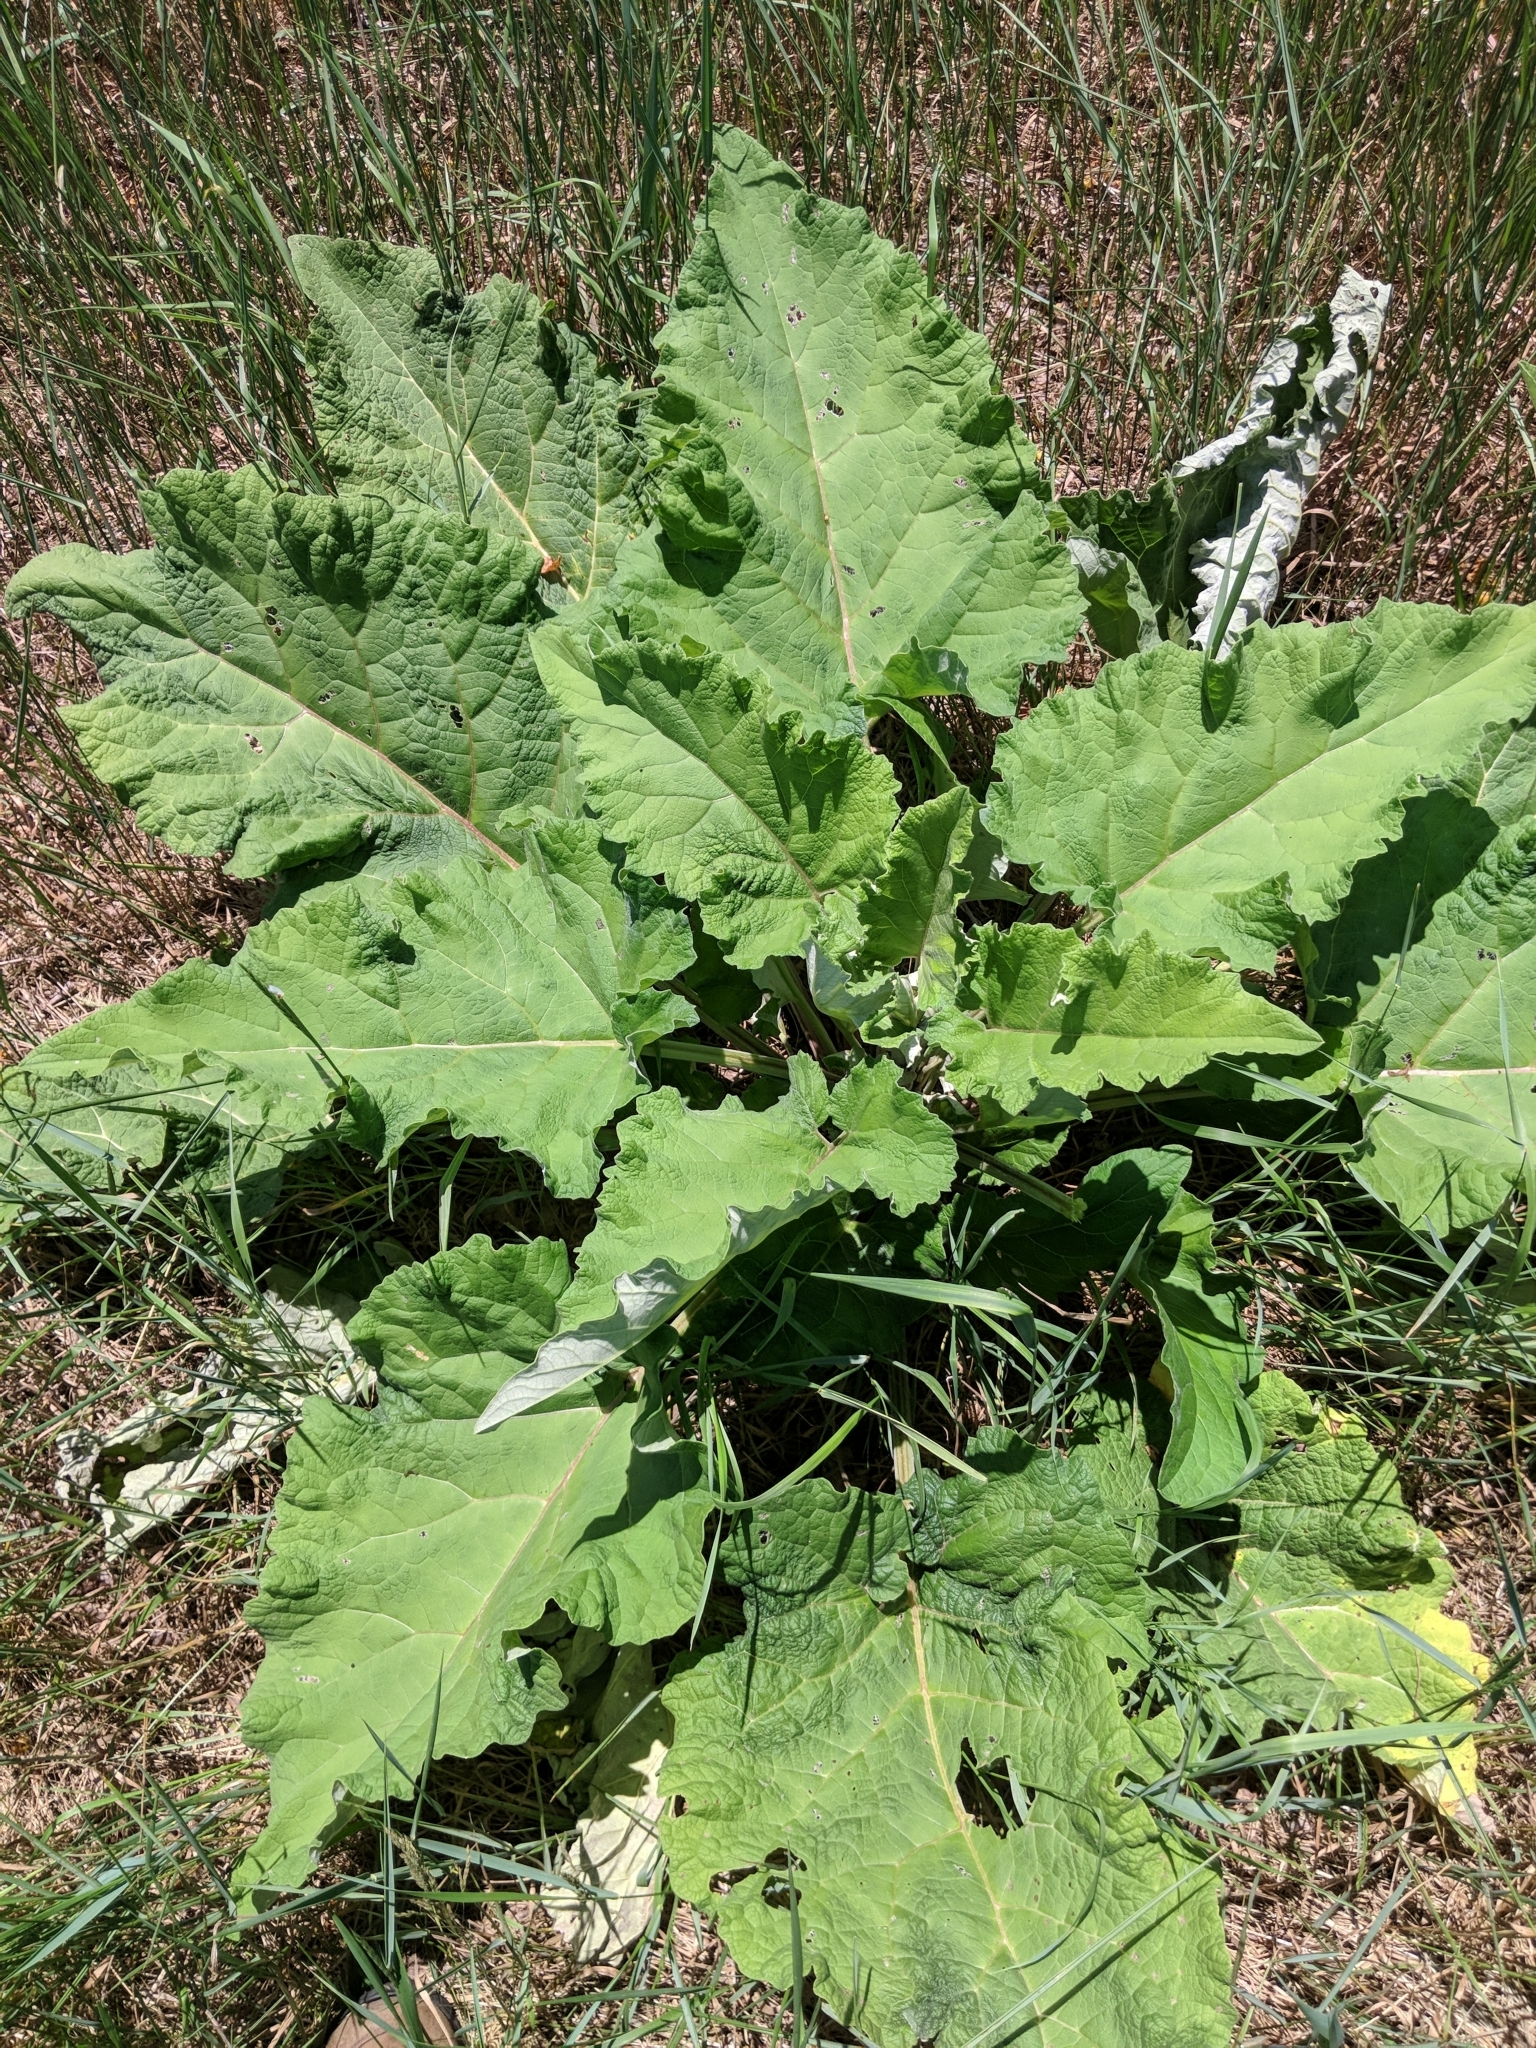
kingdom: Plantae
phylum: Tracheophyta
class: Magnoliopsida
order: Asterales
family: Asteraceae
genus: Arctium
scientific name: Arctium
